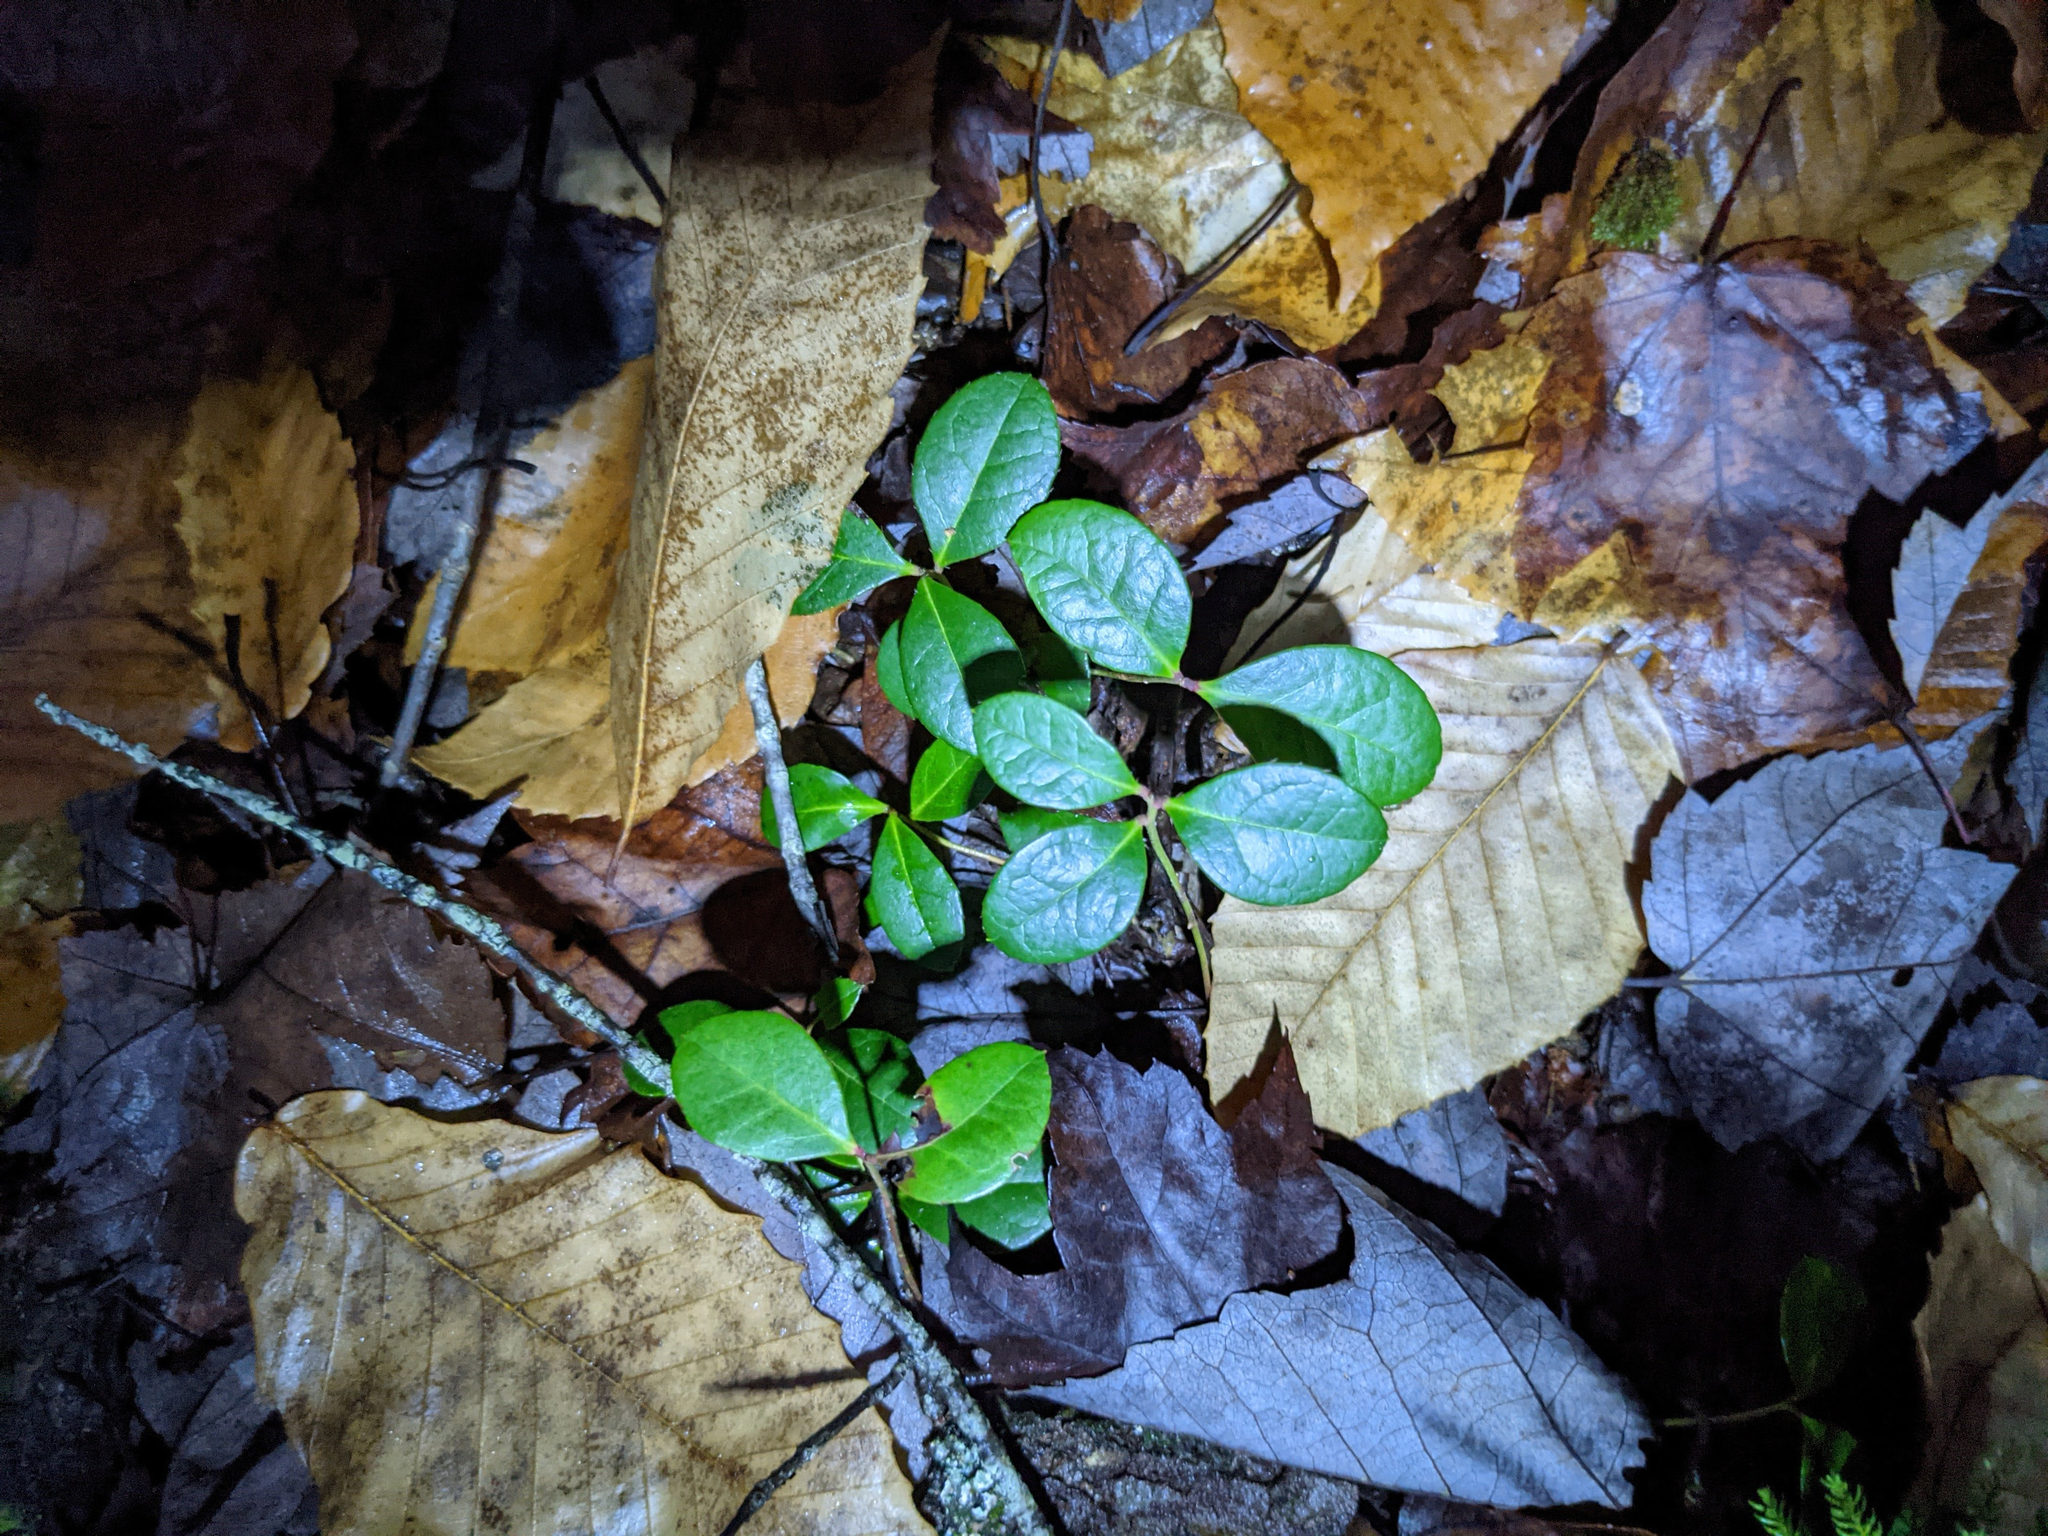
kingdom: Plantae
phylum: Tracheophyta
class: Magnoliopsida
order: Ericales
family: Ericaceae
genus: Gaultheria
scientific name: Gaultheria procumbens
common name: Checkerberry
